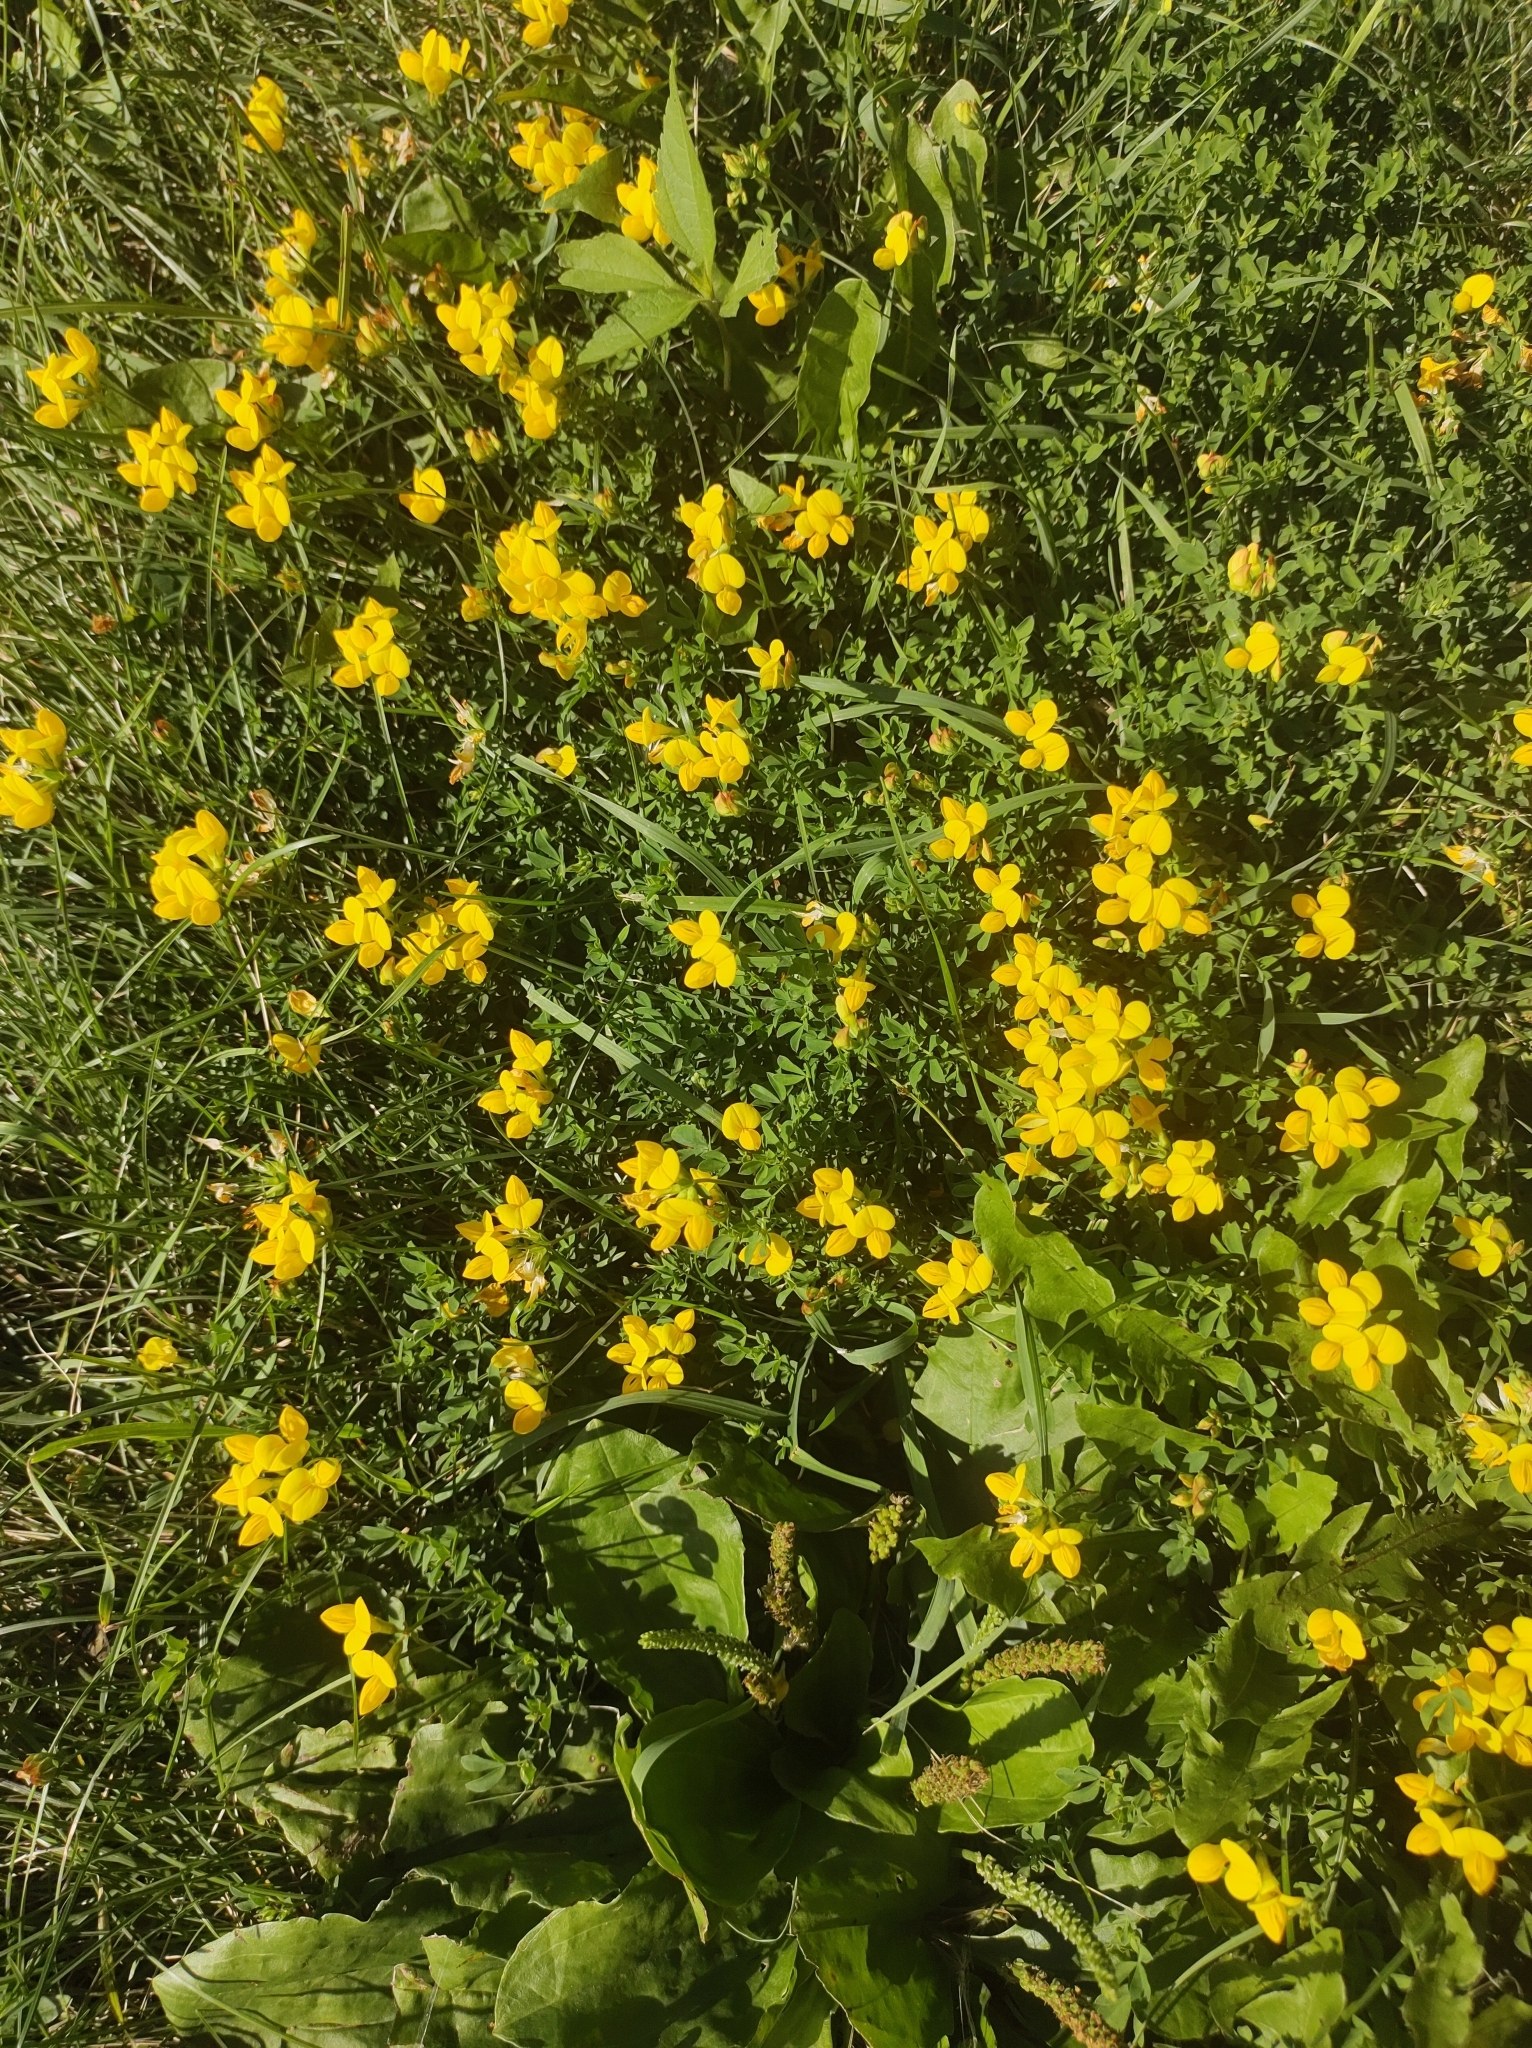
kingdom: Plantae
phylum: Tracheophyta
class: Magnoliopsida
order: Fabales
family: Fabaceae
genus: Lotus
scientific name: Lotus corniculatus
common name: Common bird's-foot-trefoil
